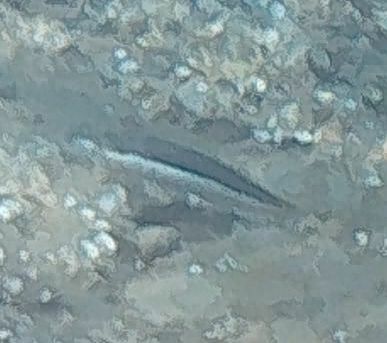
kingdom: Animalia
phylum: Chordata
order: Perciformes
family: Labridae
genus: Coris
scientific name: Coris julis
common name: Rainbow wrasse
